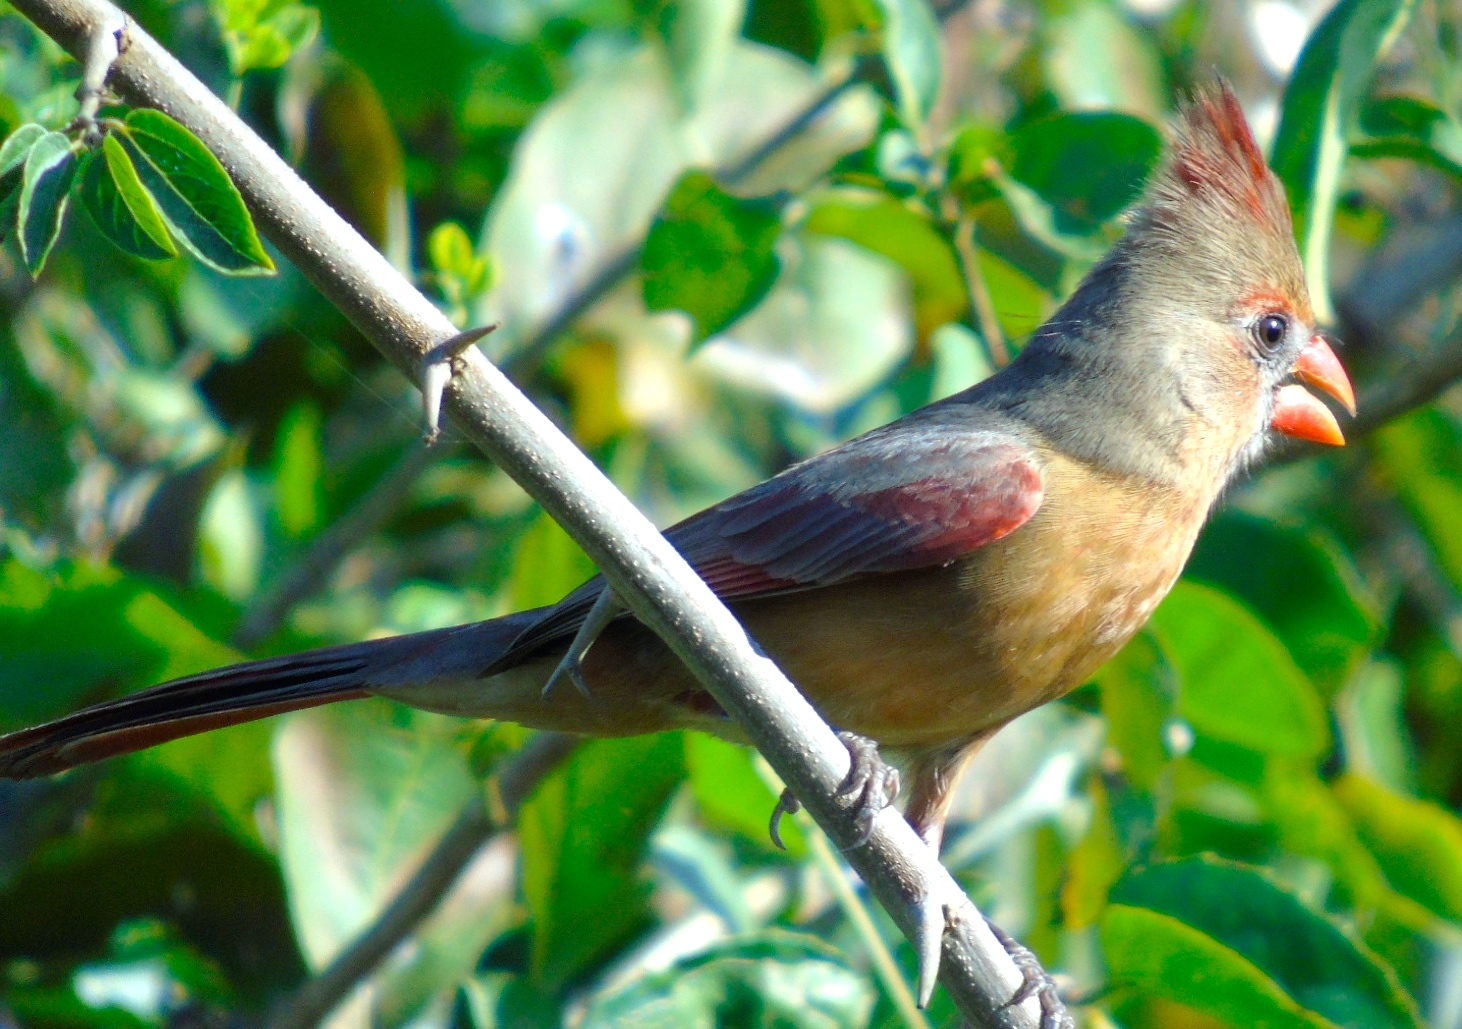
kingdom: Animalia
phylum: Chordata
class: Aves
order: Passeriformes
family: Cardinalidae
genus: Cardinalis
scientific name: Cardinalis cardinalis
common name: Northern cardinal
